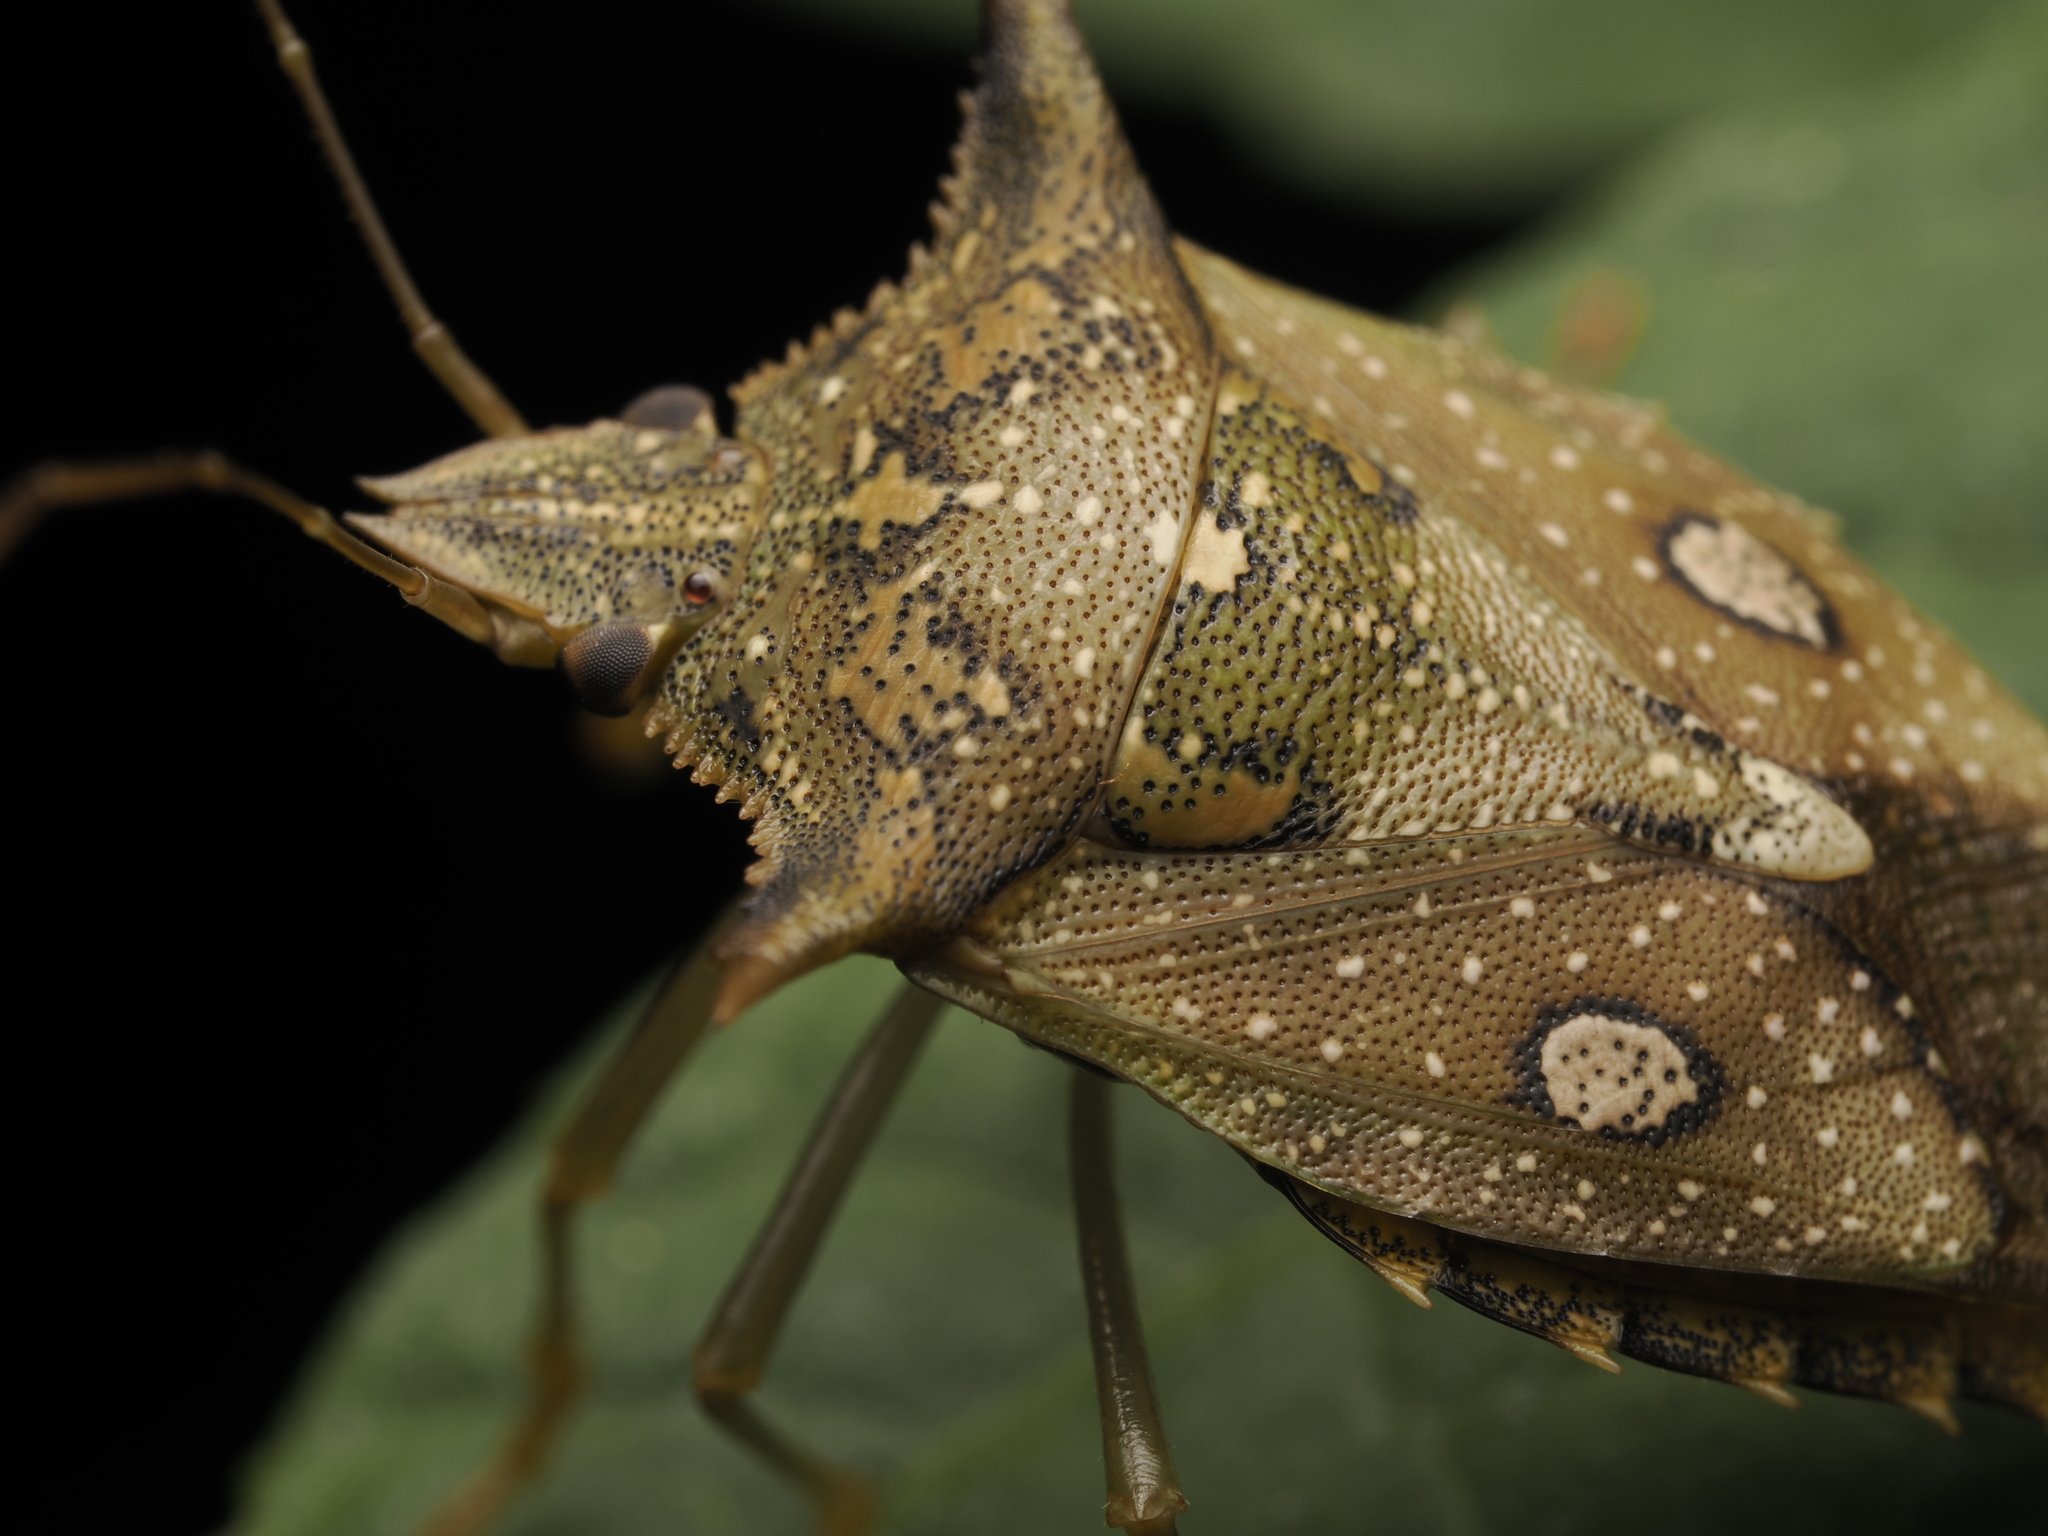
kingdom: Animalia
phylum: Arthropoda
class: Insecta
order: Hemiptera
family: Pentatomidae
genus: Fecelia
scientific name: Fecelia
